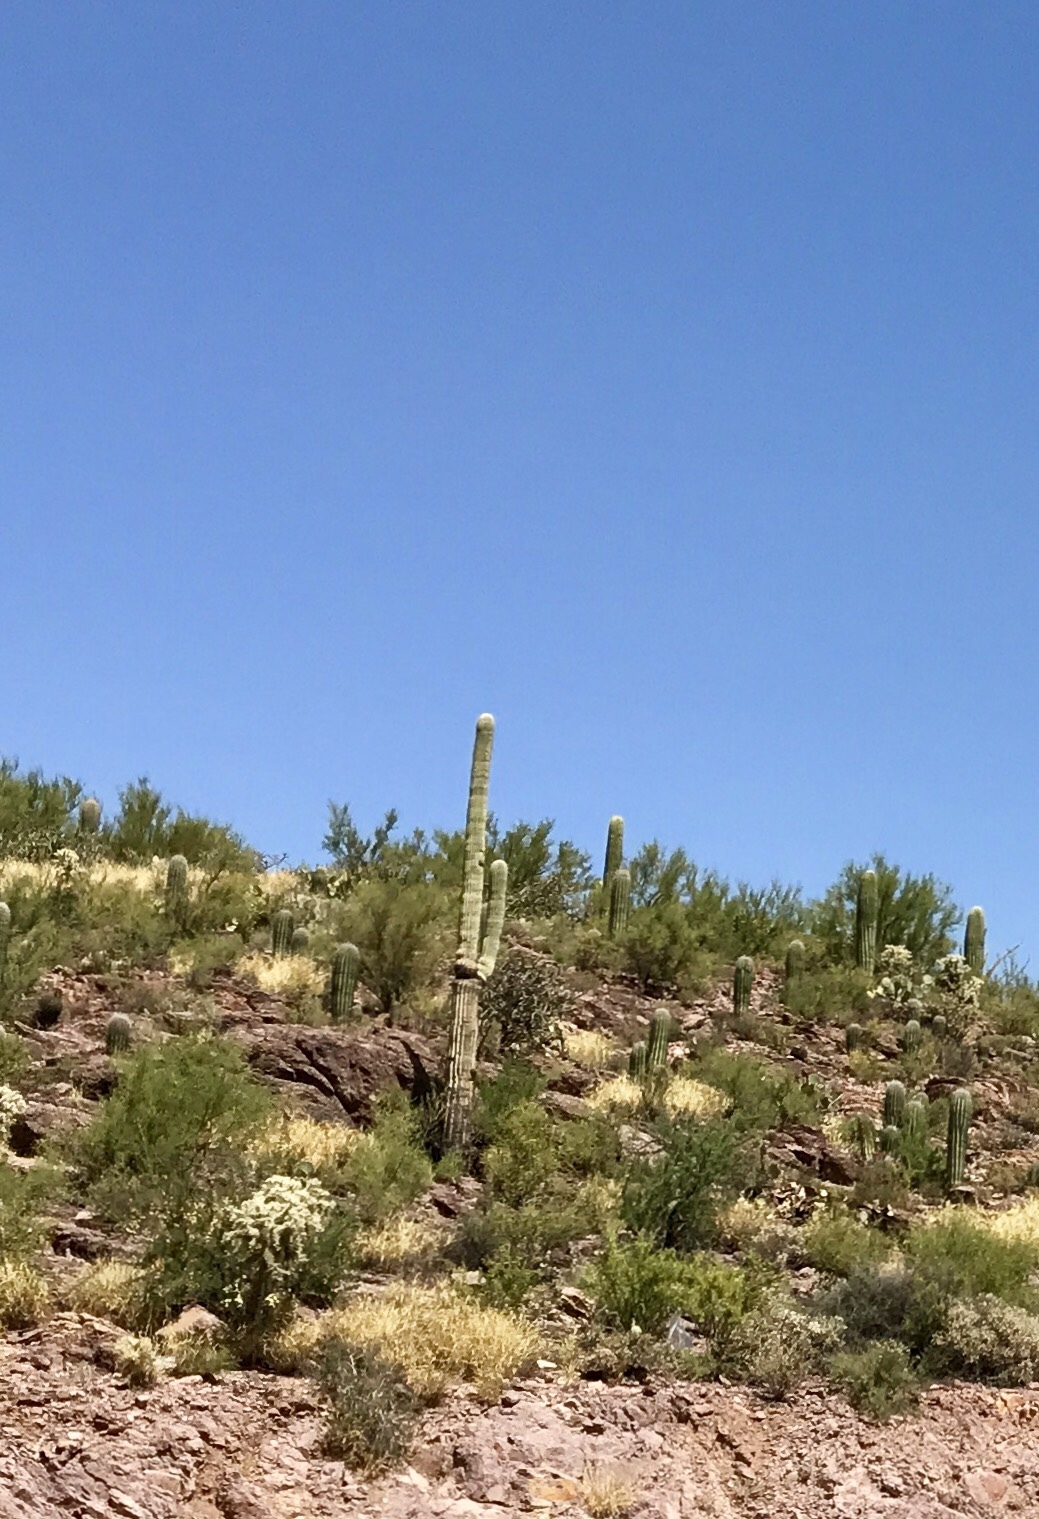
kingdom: Plantae
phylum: Tracheophyta
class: Magnoliopsida
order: Caryophyllales
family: Cactaceae
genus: Carnegiea
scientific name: Carnegiea gigantea
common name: Saguaro
